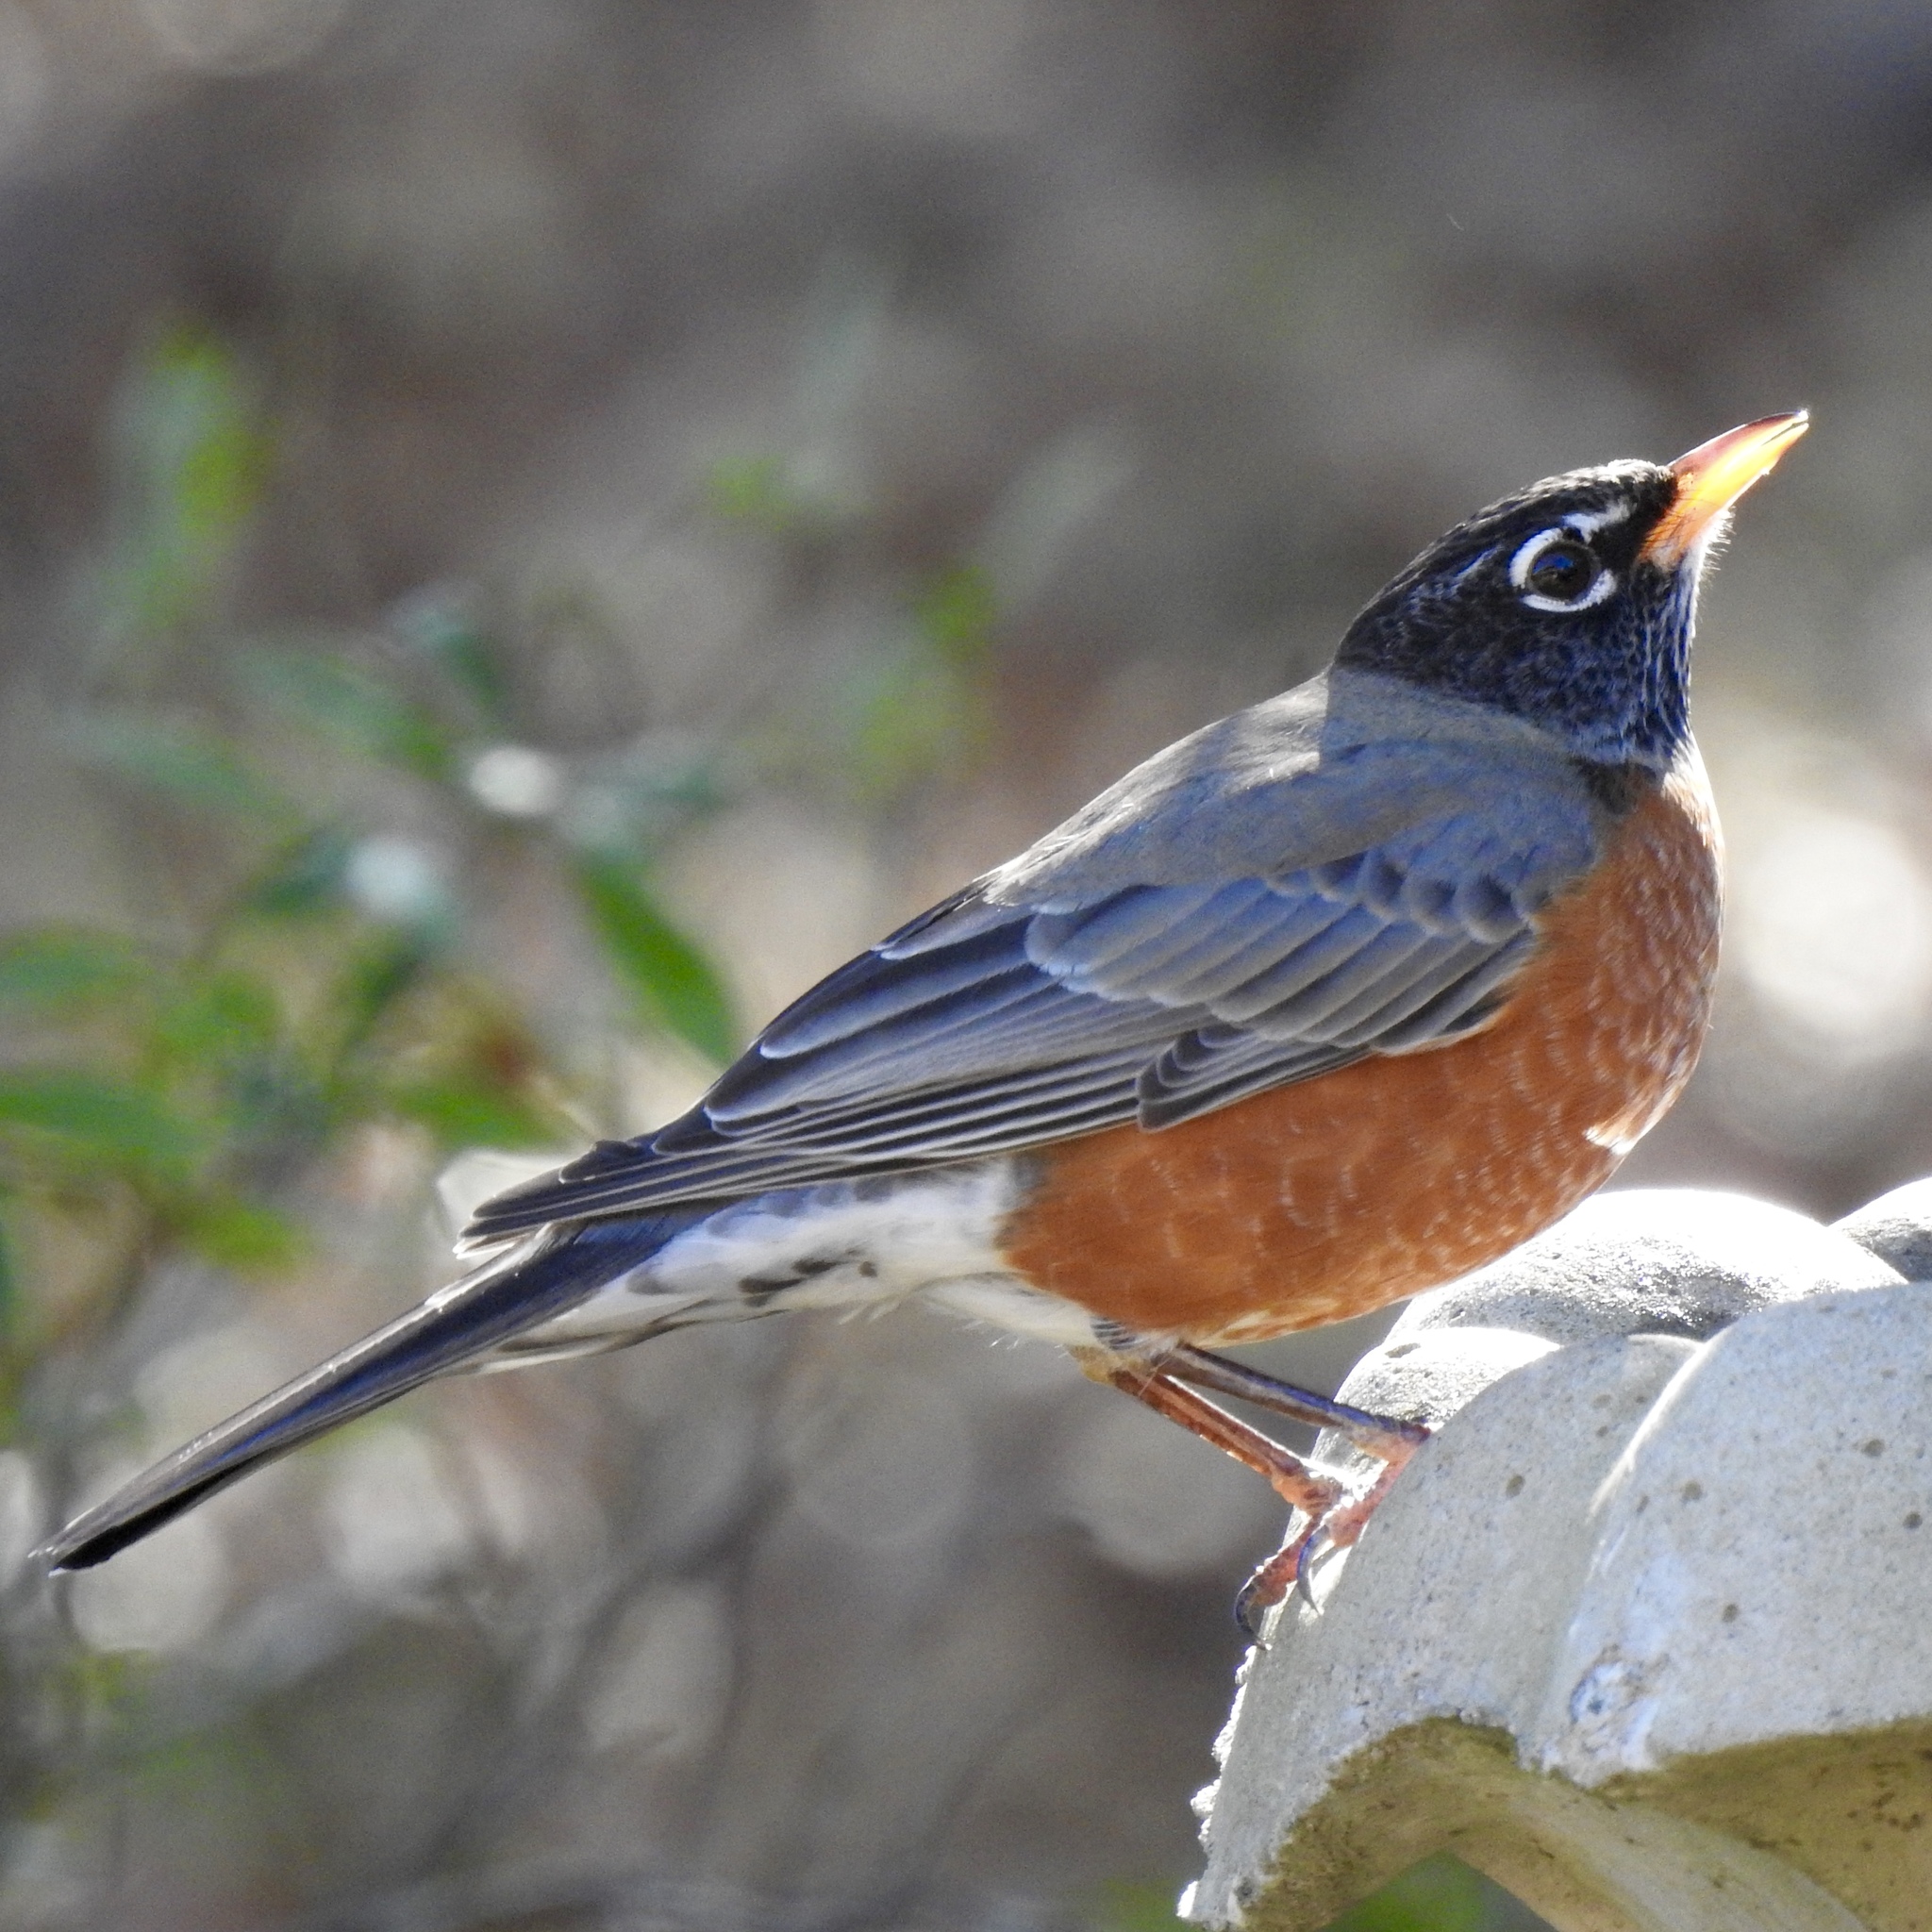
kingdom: Animalia
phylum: Chordata
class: Aves
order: Passeriformes
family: Turdidae
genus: Turdus
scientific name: Turdus migratorius
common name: American robin
